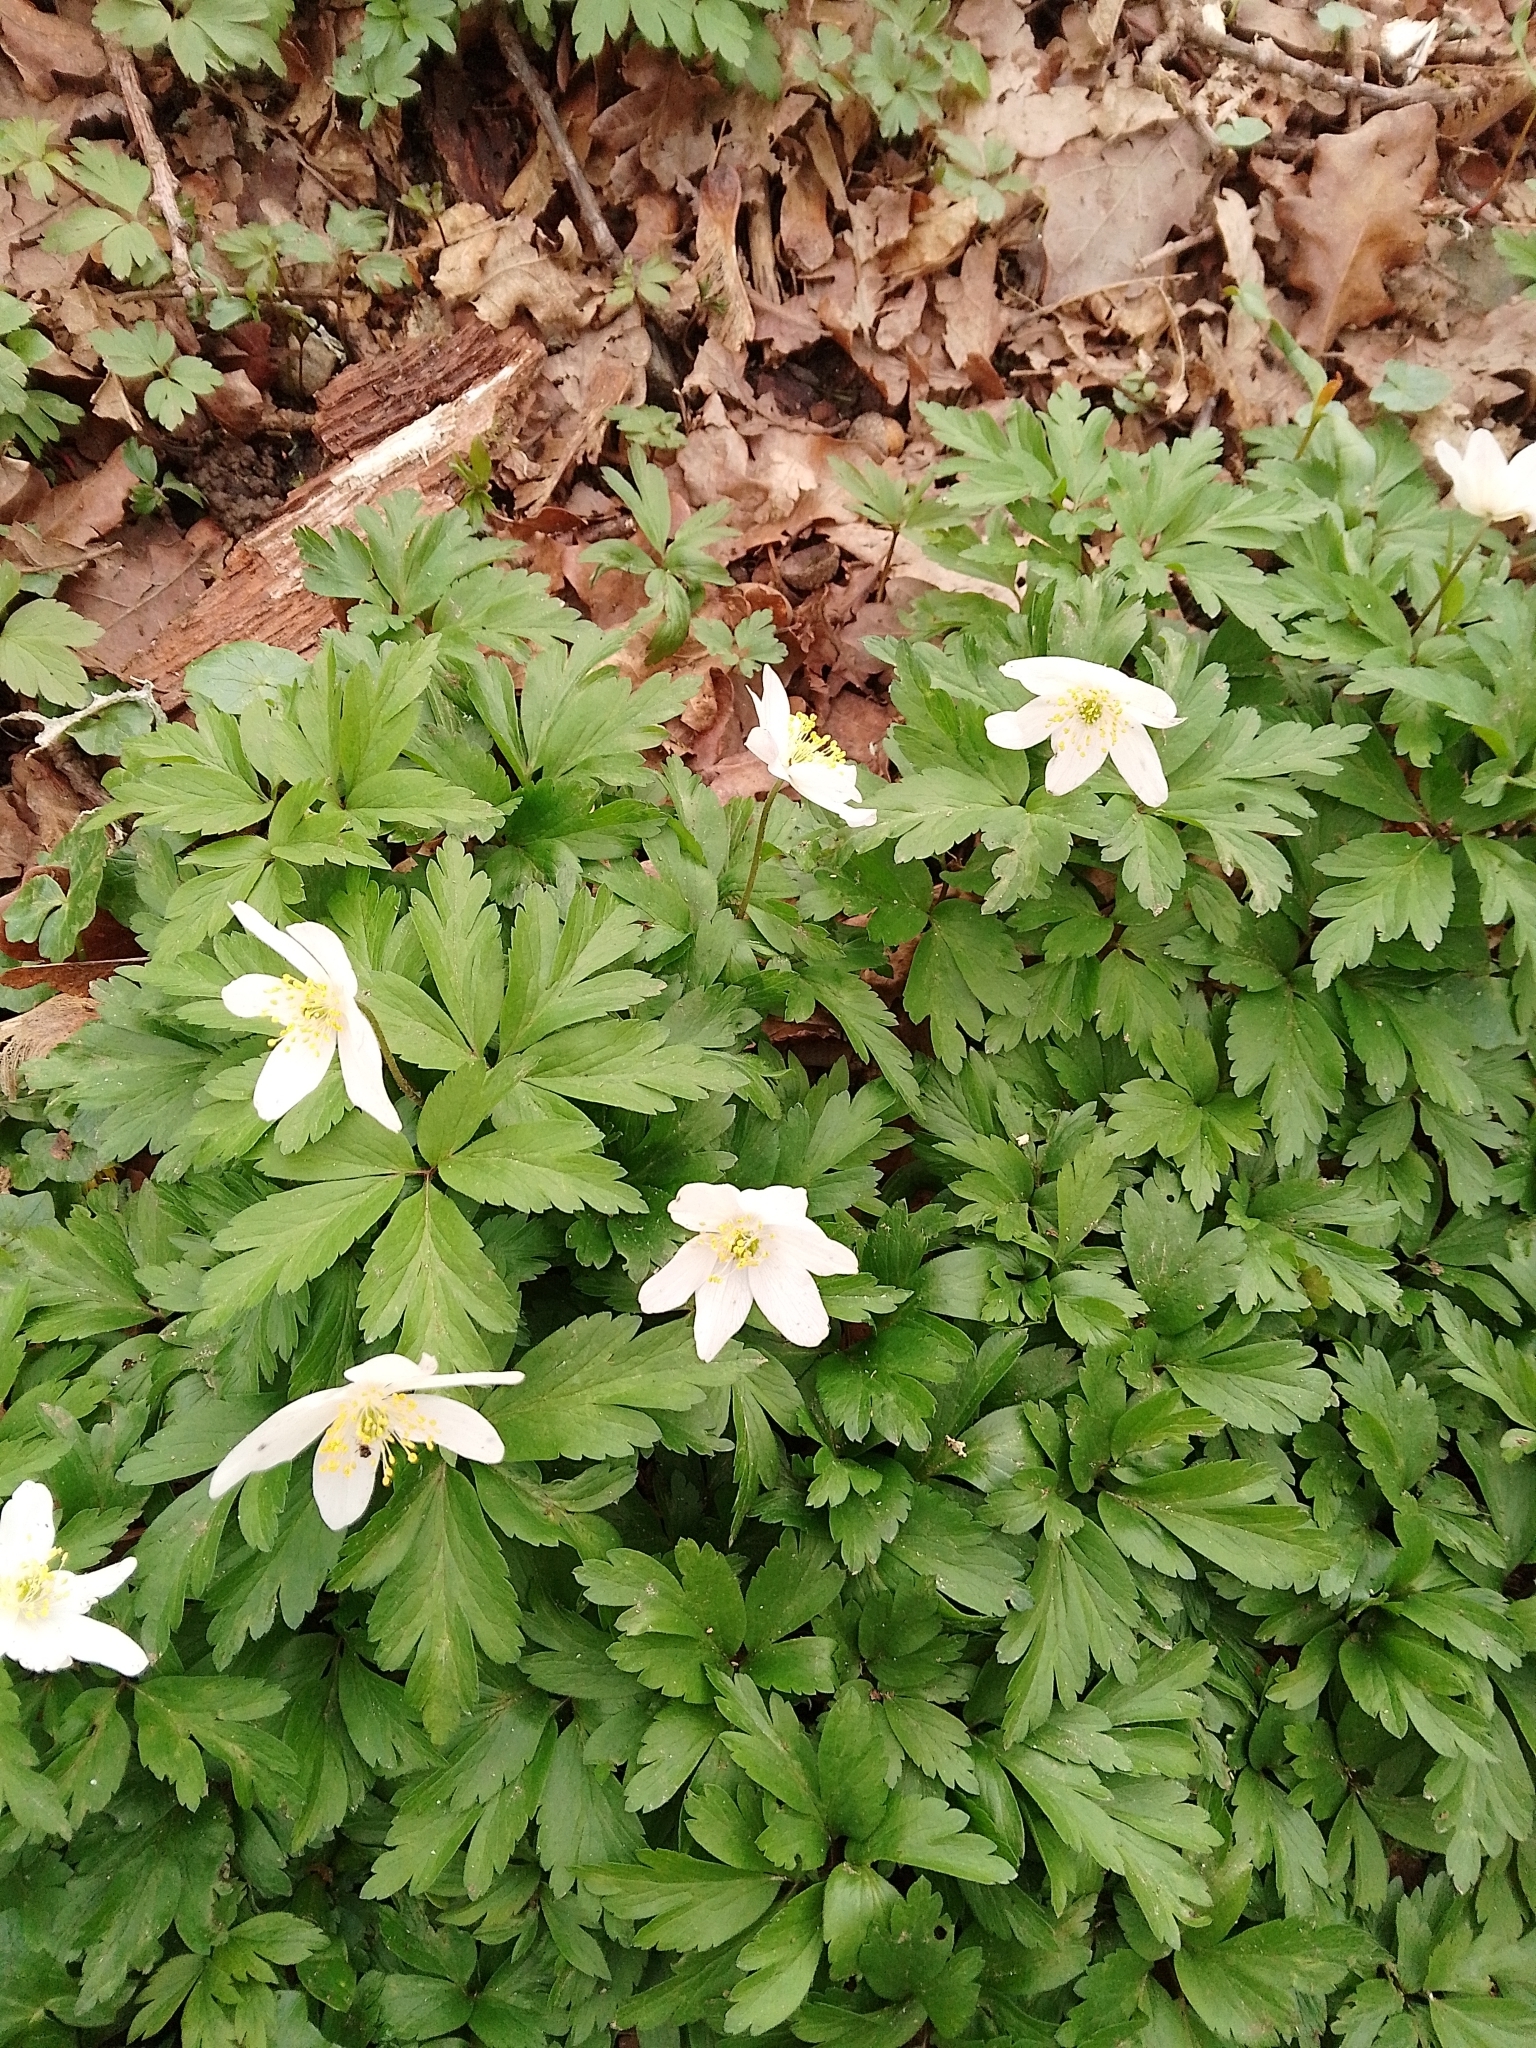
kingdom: Plantae
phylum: Tracheophyta
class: Magnoliopsida
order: Ranunculales
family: Ranunculaceae
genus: Anemone
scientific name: Anemone nemorosa
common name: Wood anemone
